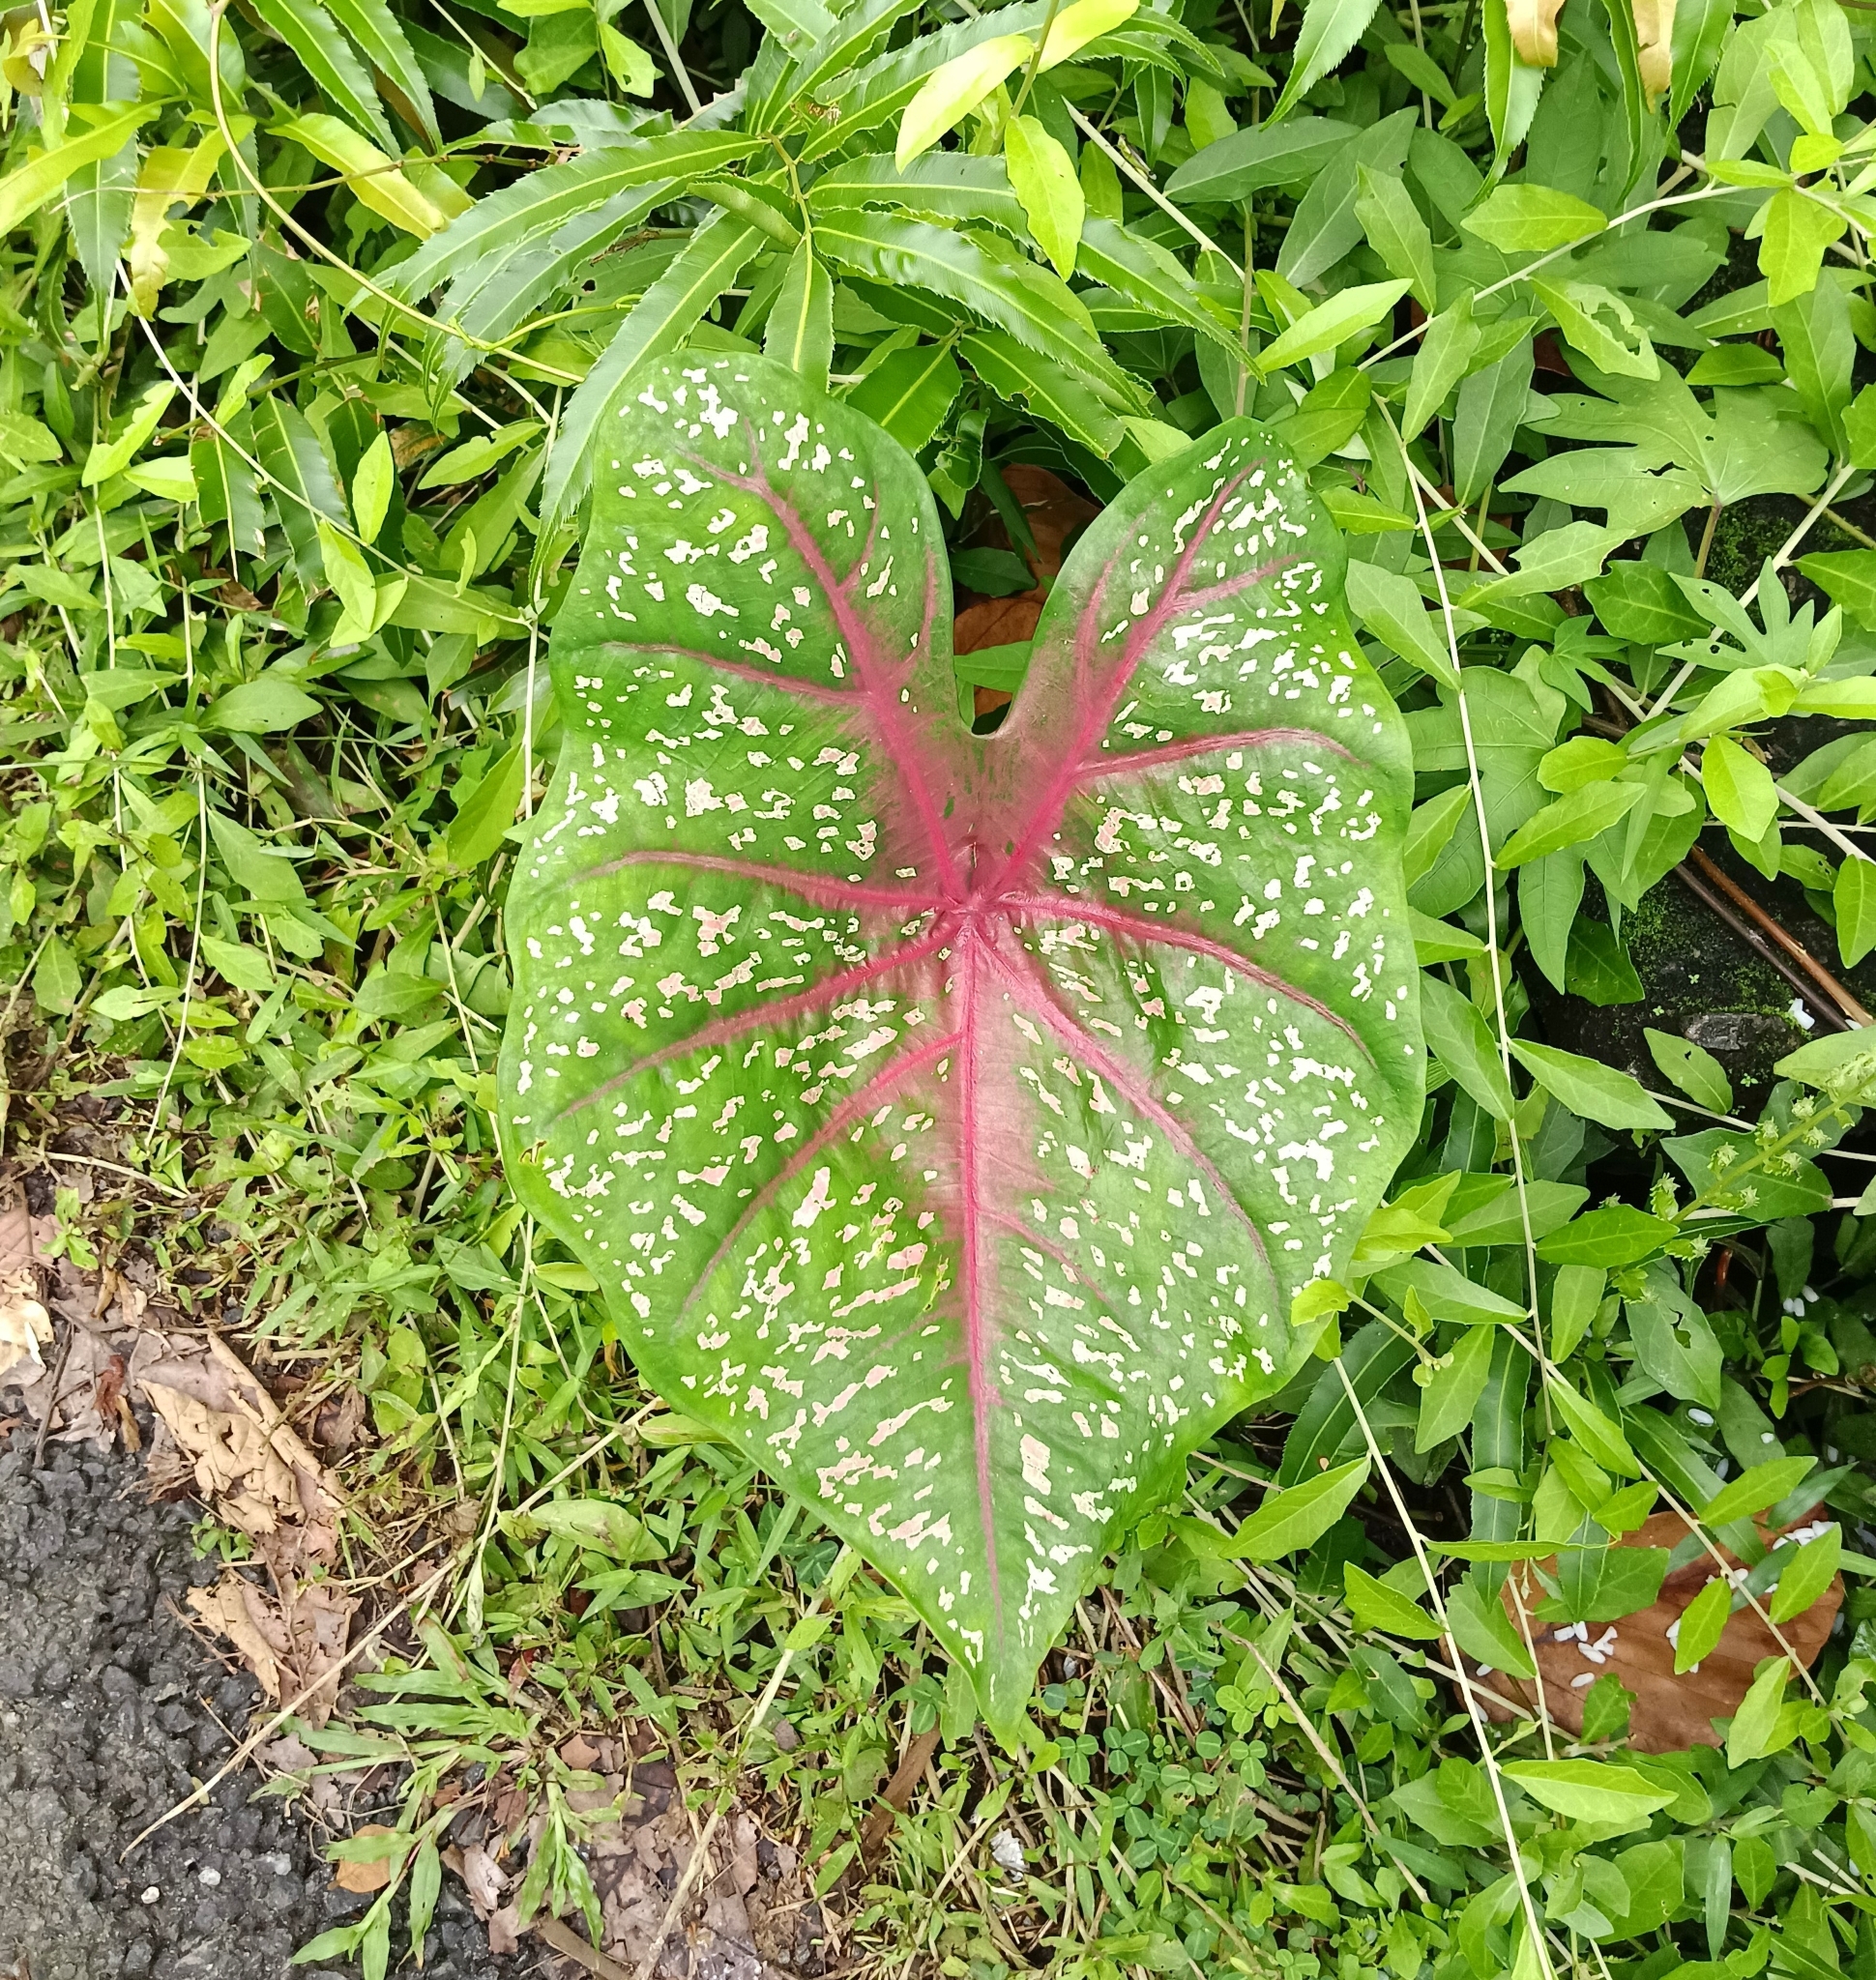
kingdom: Plantae
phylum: Tracheophyta
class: Liliopsida
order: Alismatales
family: Araceae
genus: Caladium
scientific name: Caladium bicolor
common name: Artist's pallet
